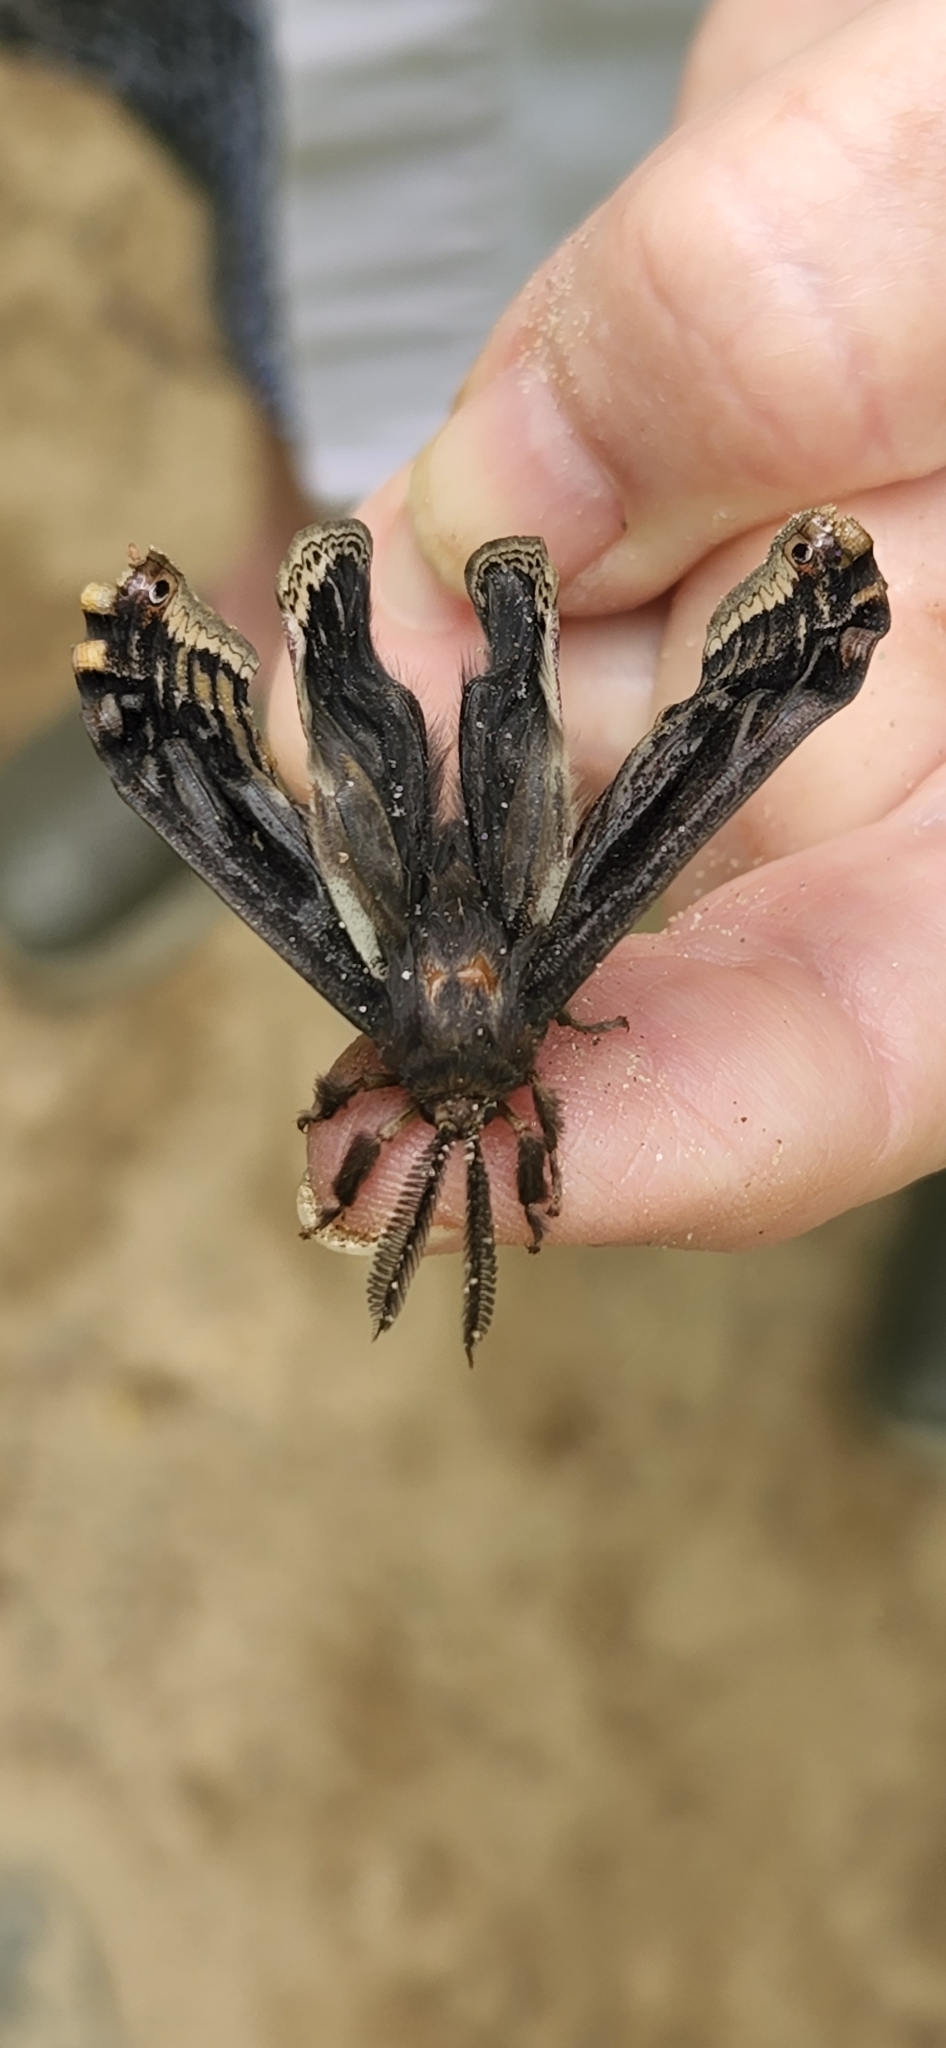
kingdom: Animalia
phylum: Arthropoda
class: Insecta
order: Lepidoptera
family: Saturniidae
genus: Callosamia
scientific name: Callosamia promethea
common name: Promethea silkmoth
